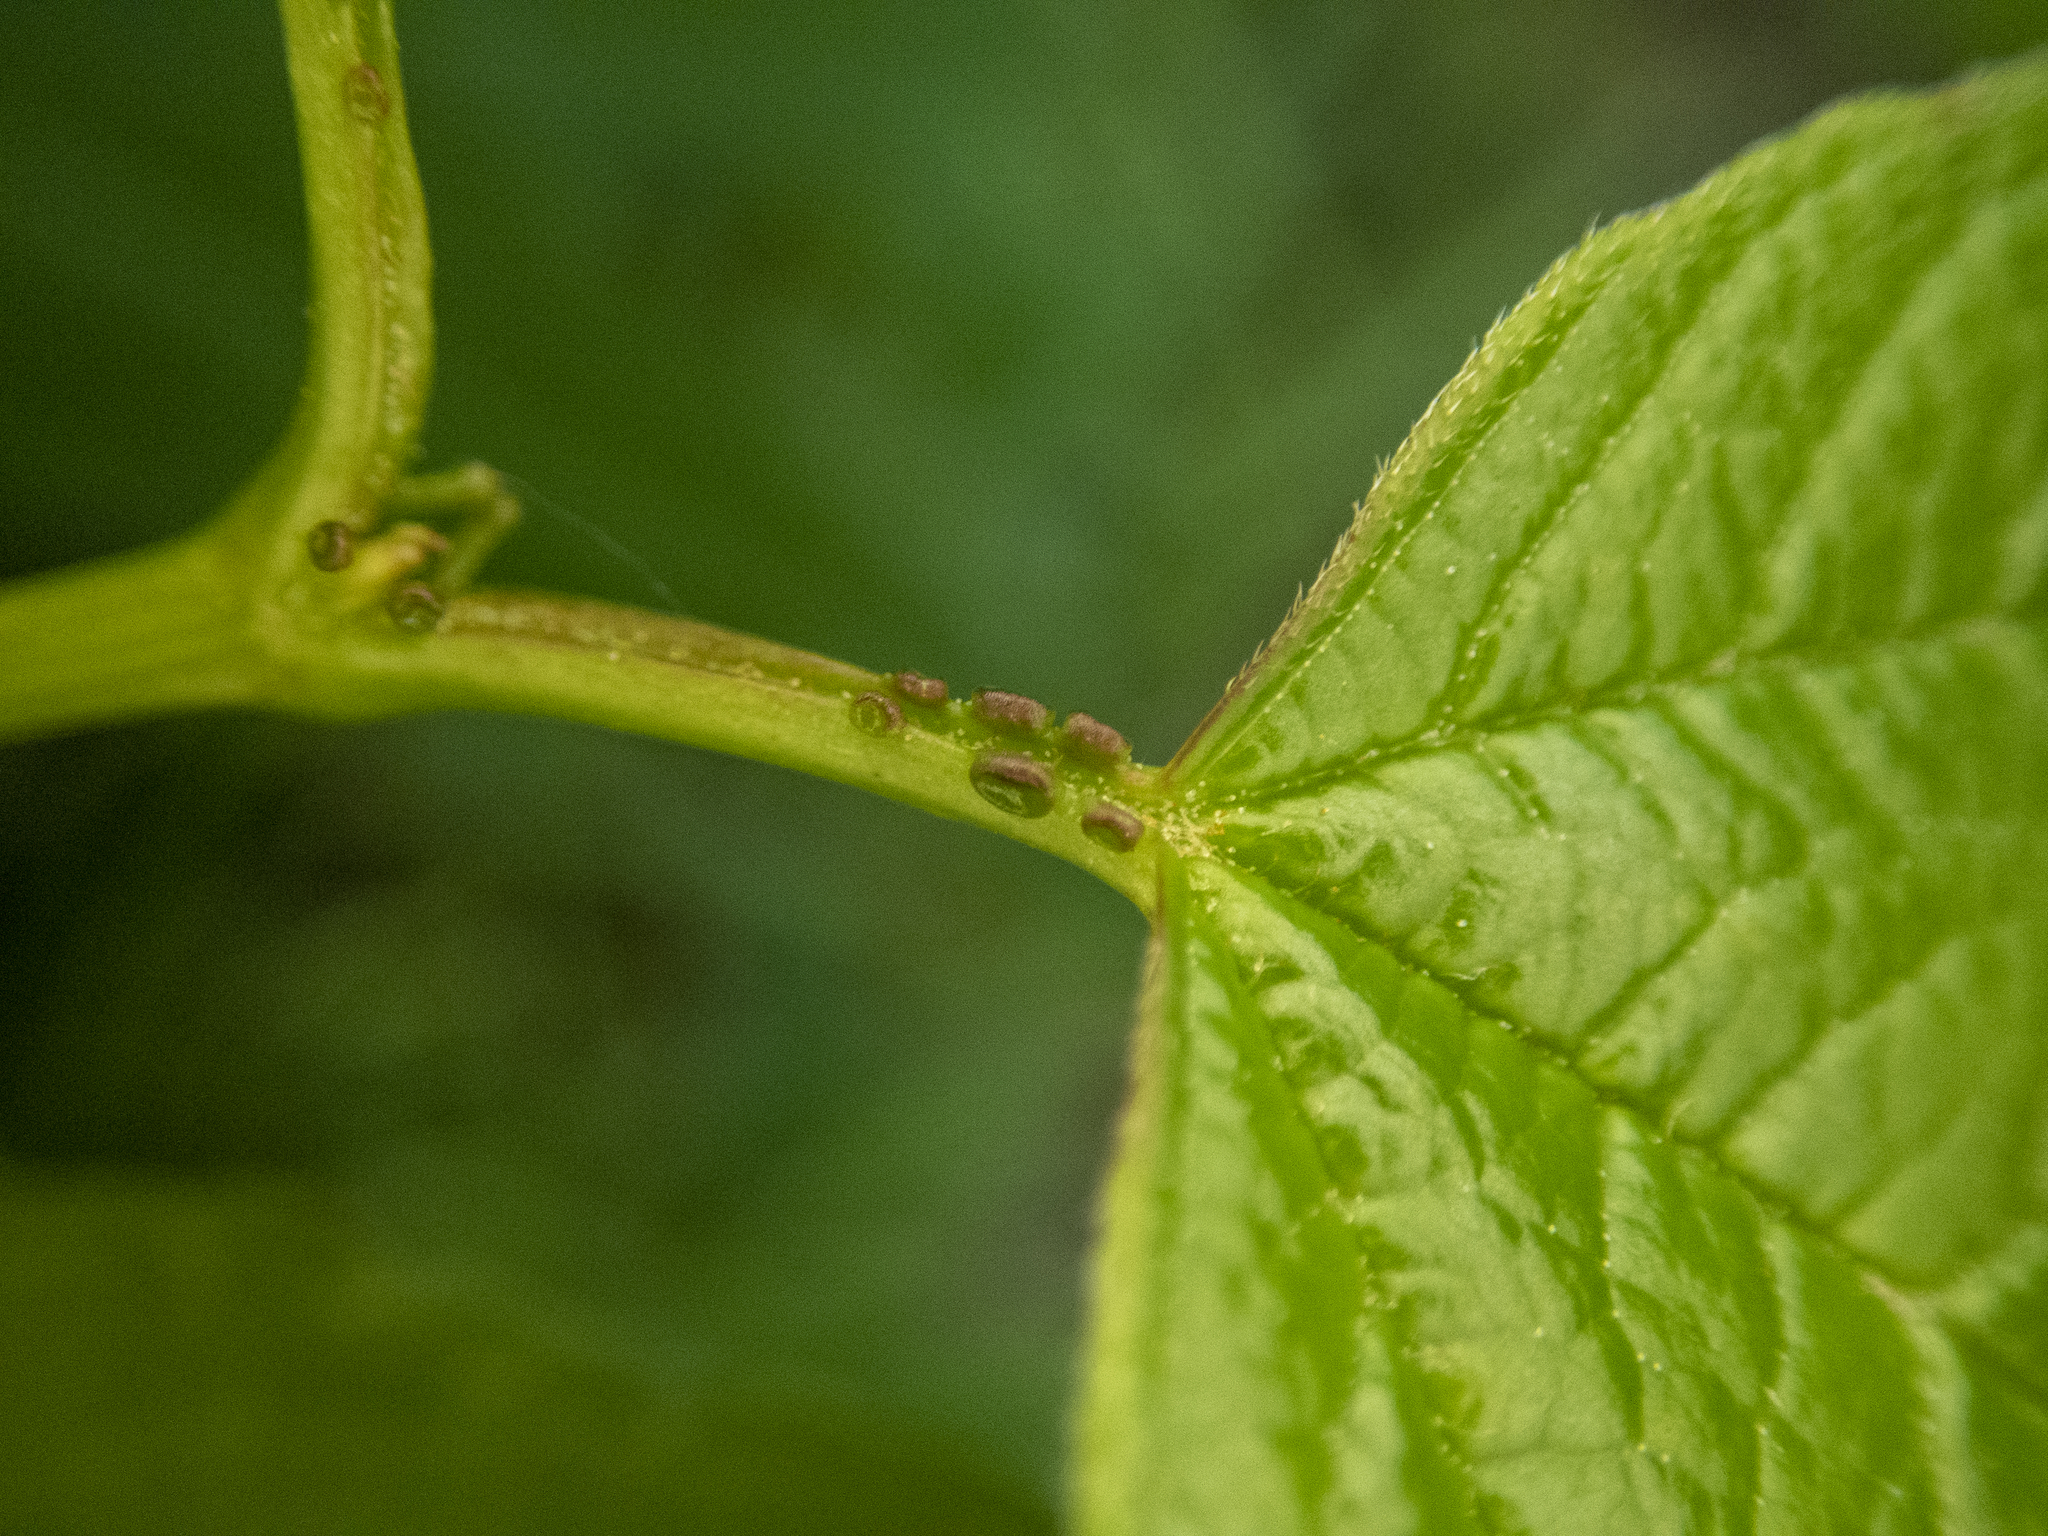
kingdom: Plantae
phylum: Tracheophyta
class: Magnoliopsida
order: Dipsacales
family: Viburnaceae
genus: Viburnum
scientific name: Viburnum opulus
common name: Guelder-rose
